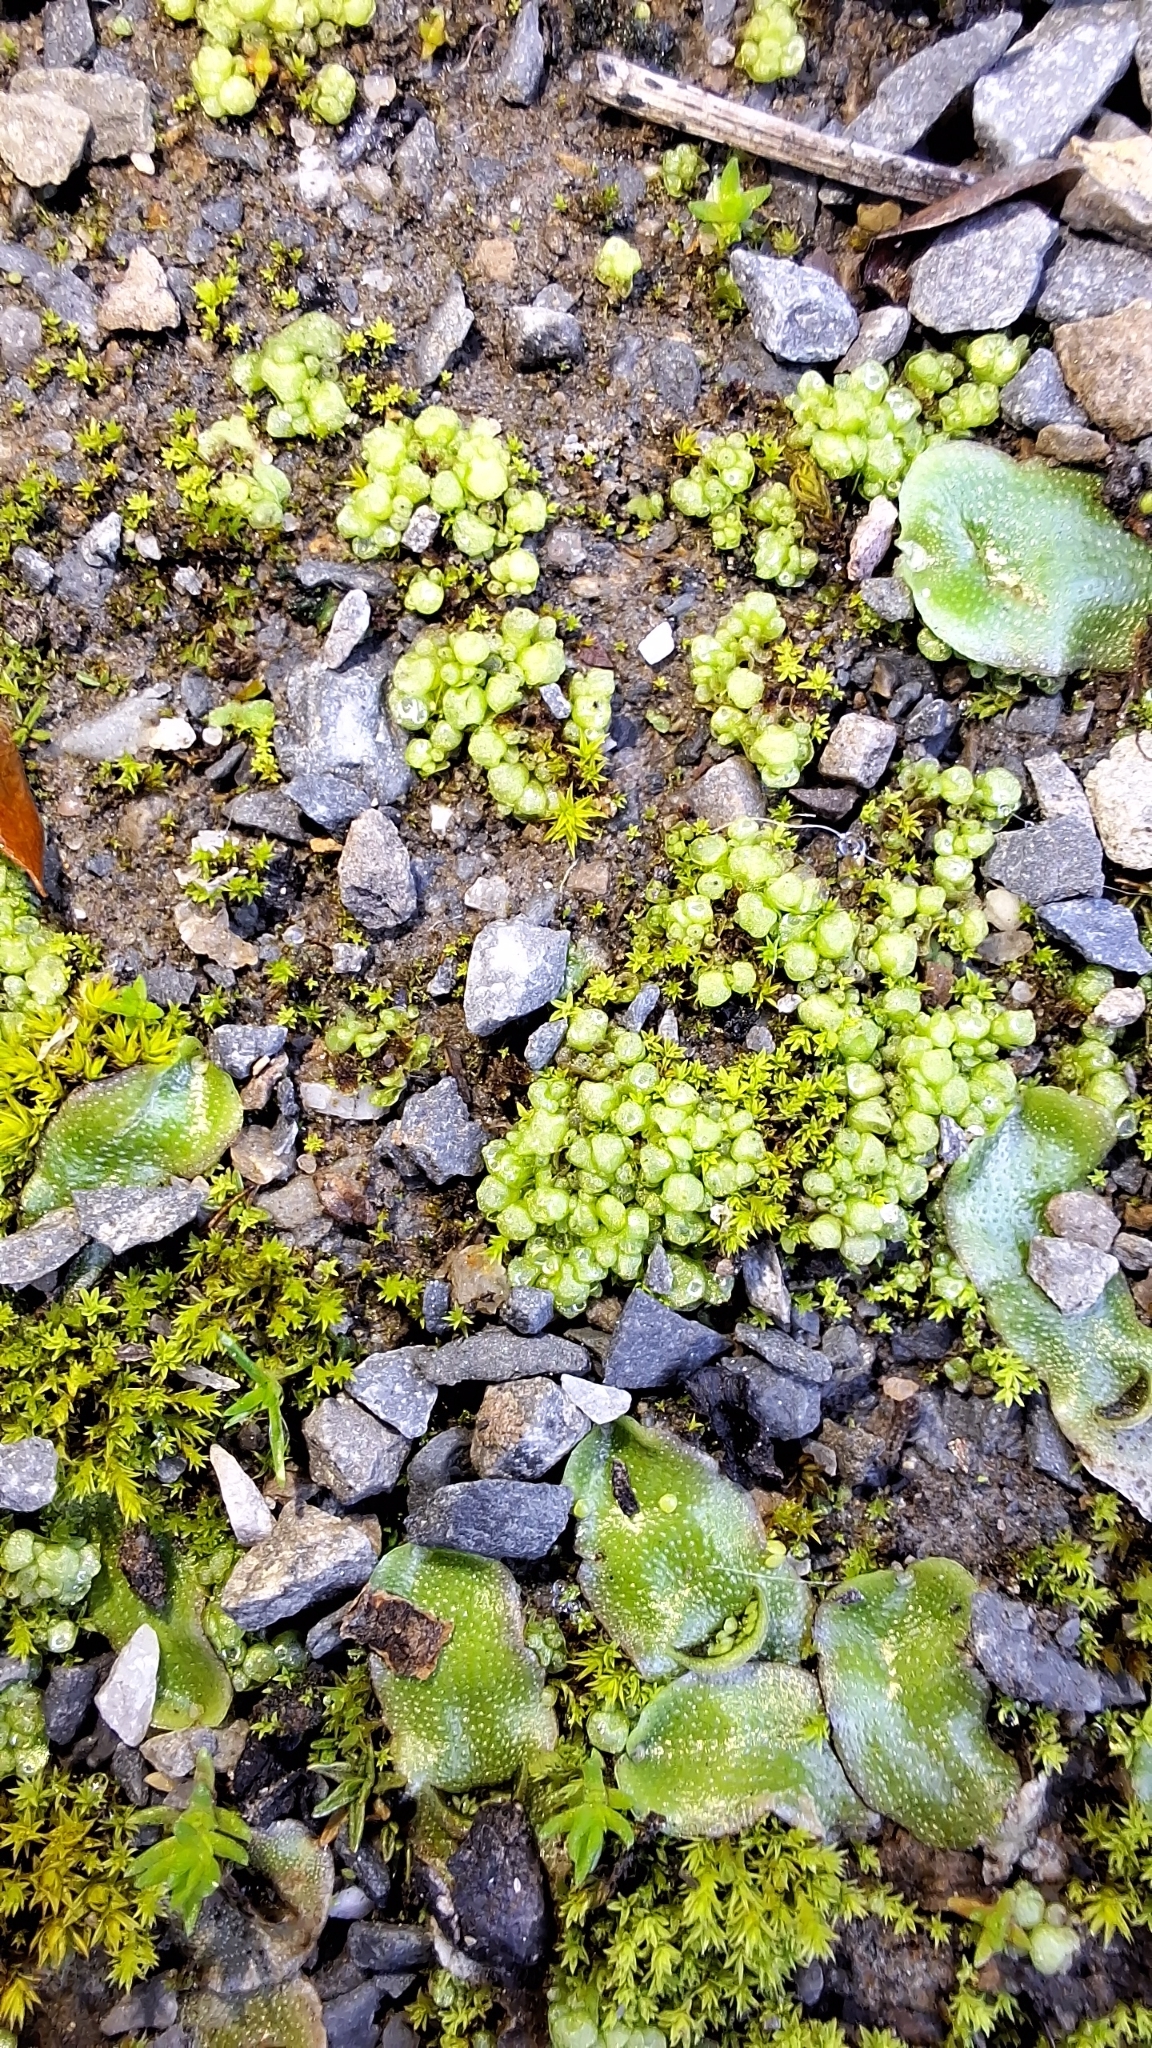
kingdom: Plantae
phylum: Marchantiophyta
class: Marchantiopsida
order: Sphaerocarpales
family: Sphaerocarpaceae
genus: Sphaerocarpos
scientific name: Sphaerocarpos texanus
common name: Texas balloonwort
